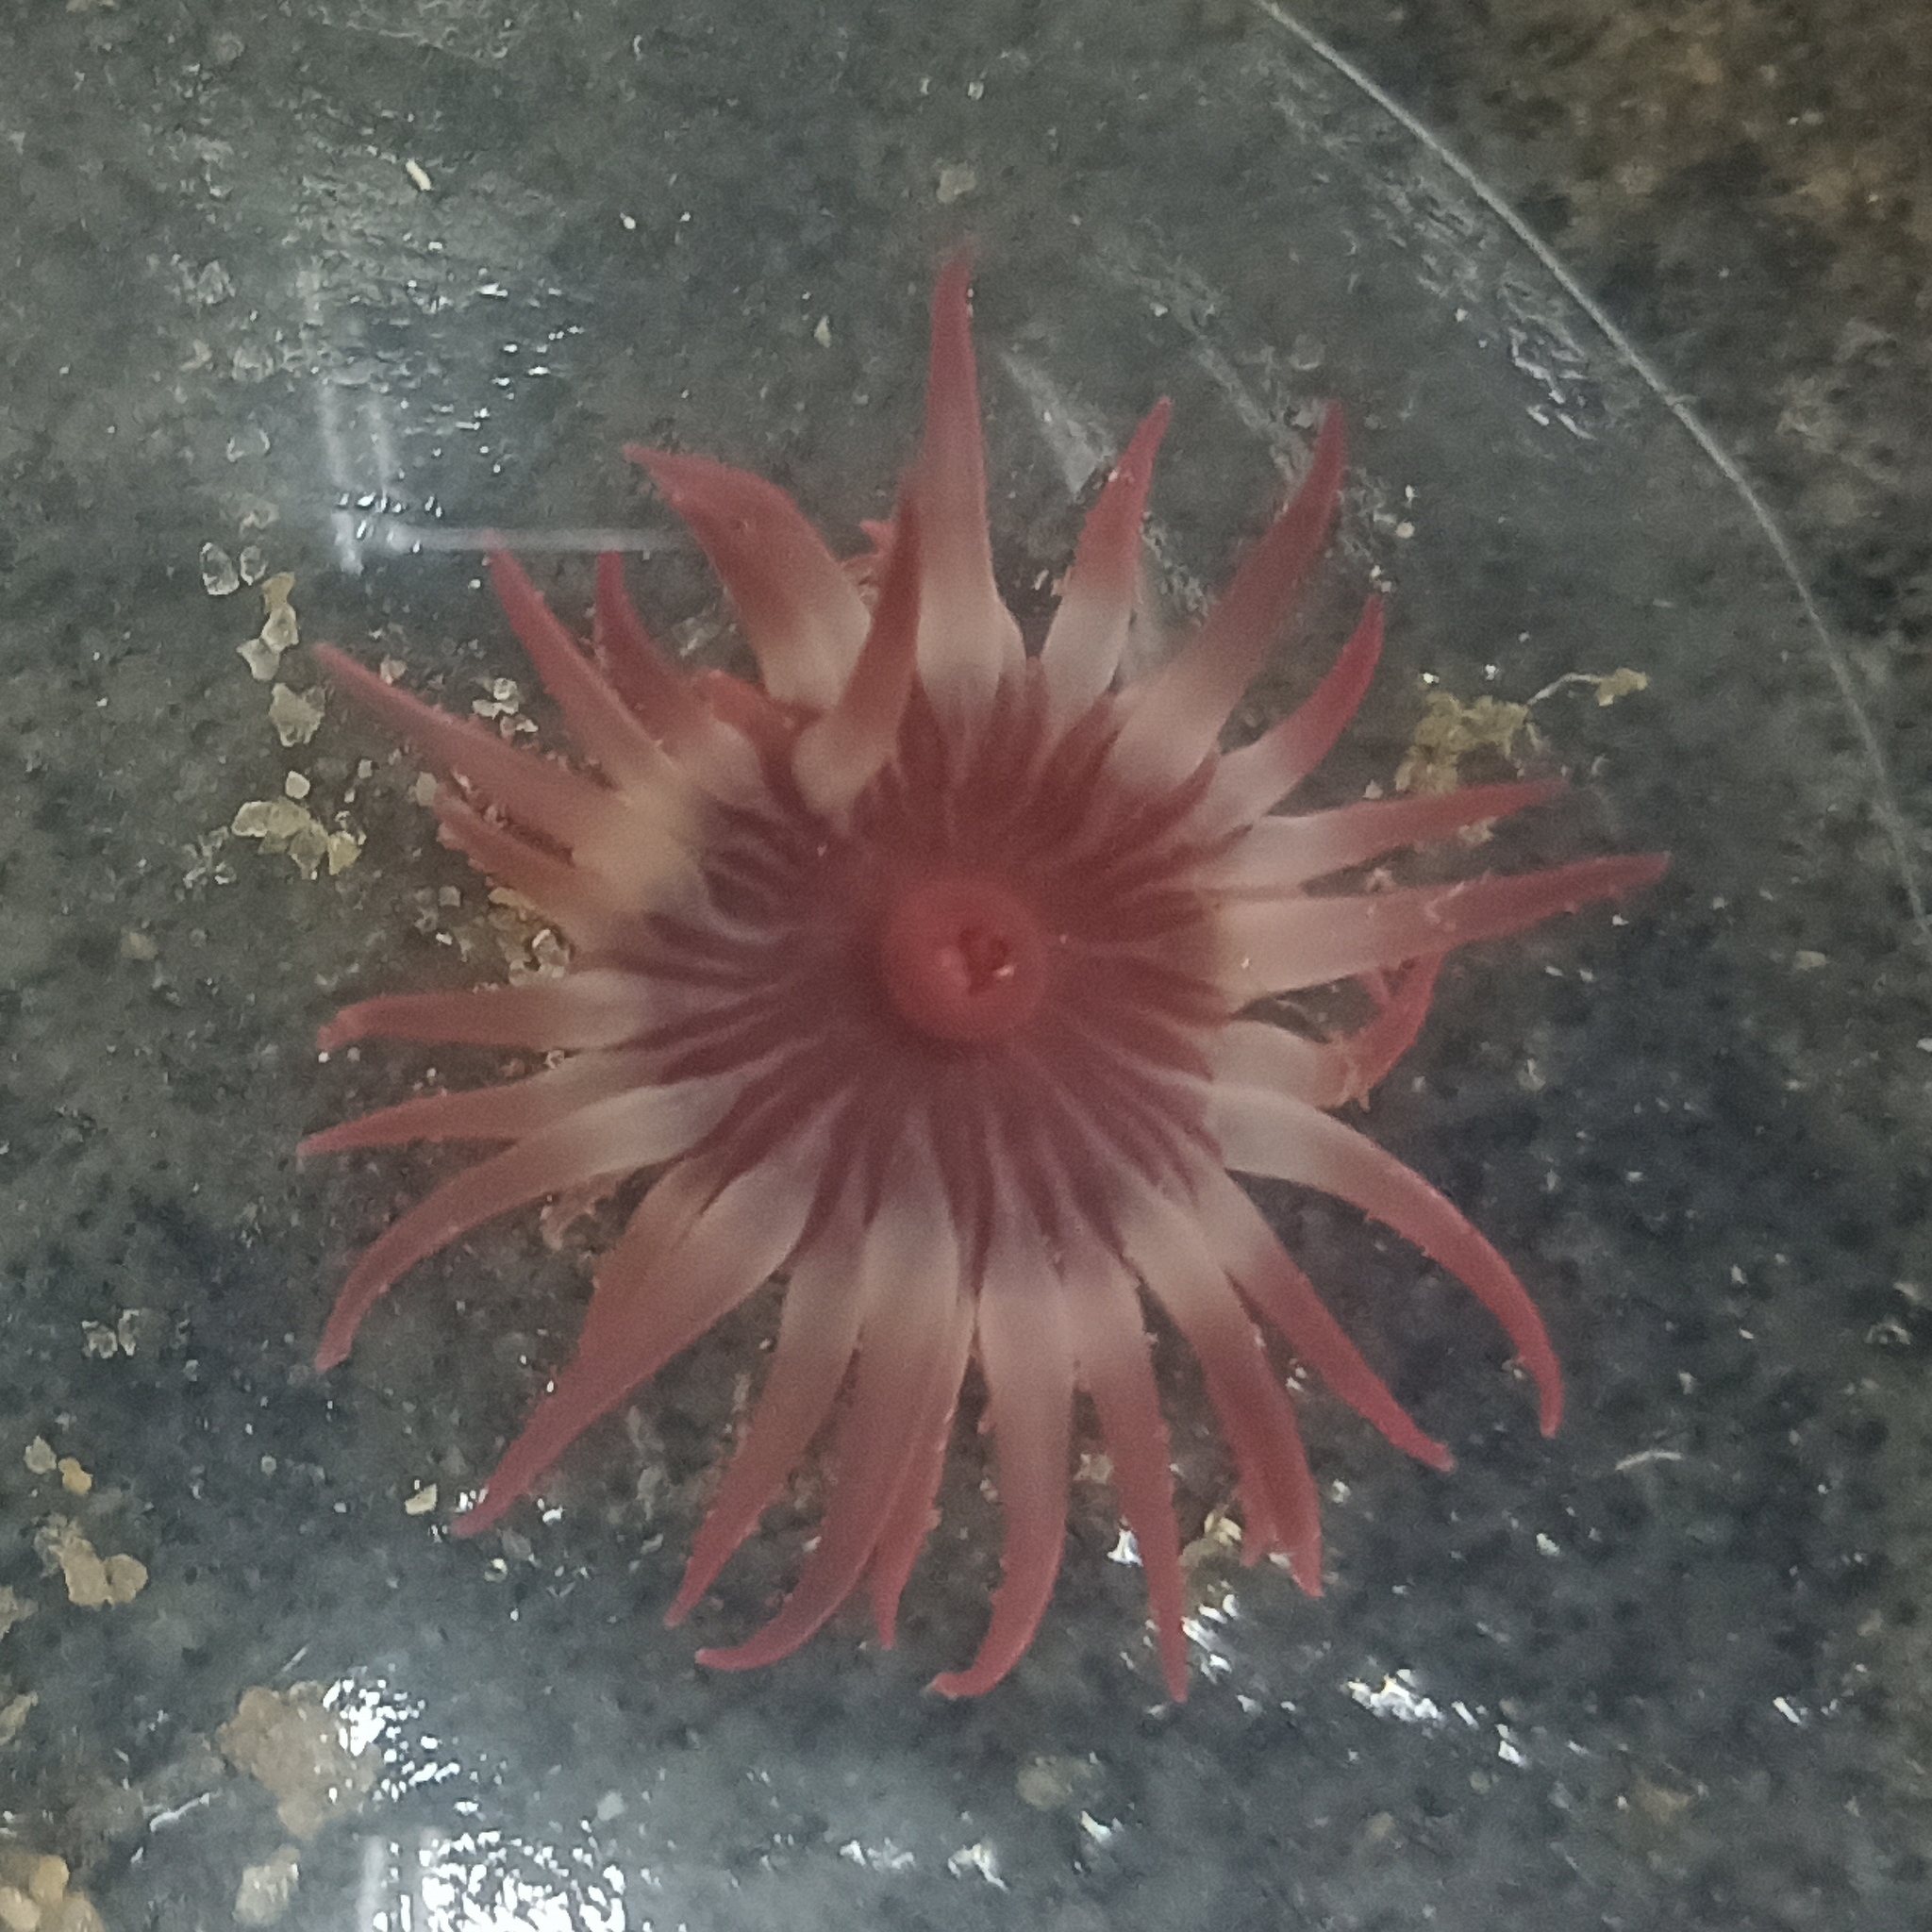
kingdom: Animalia
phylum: Cnidaria
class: Anthozoa
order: Actiniaria
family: Actiniidae
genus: Anemonia
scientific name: Anemonia sargassensis
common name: Sargassum anemone
